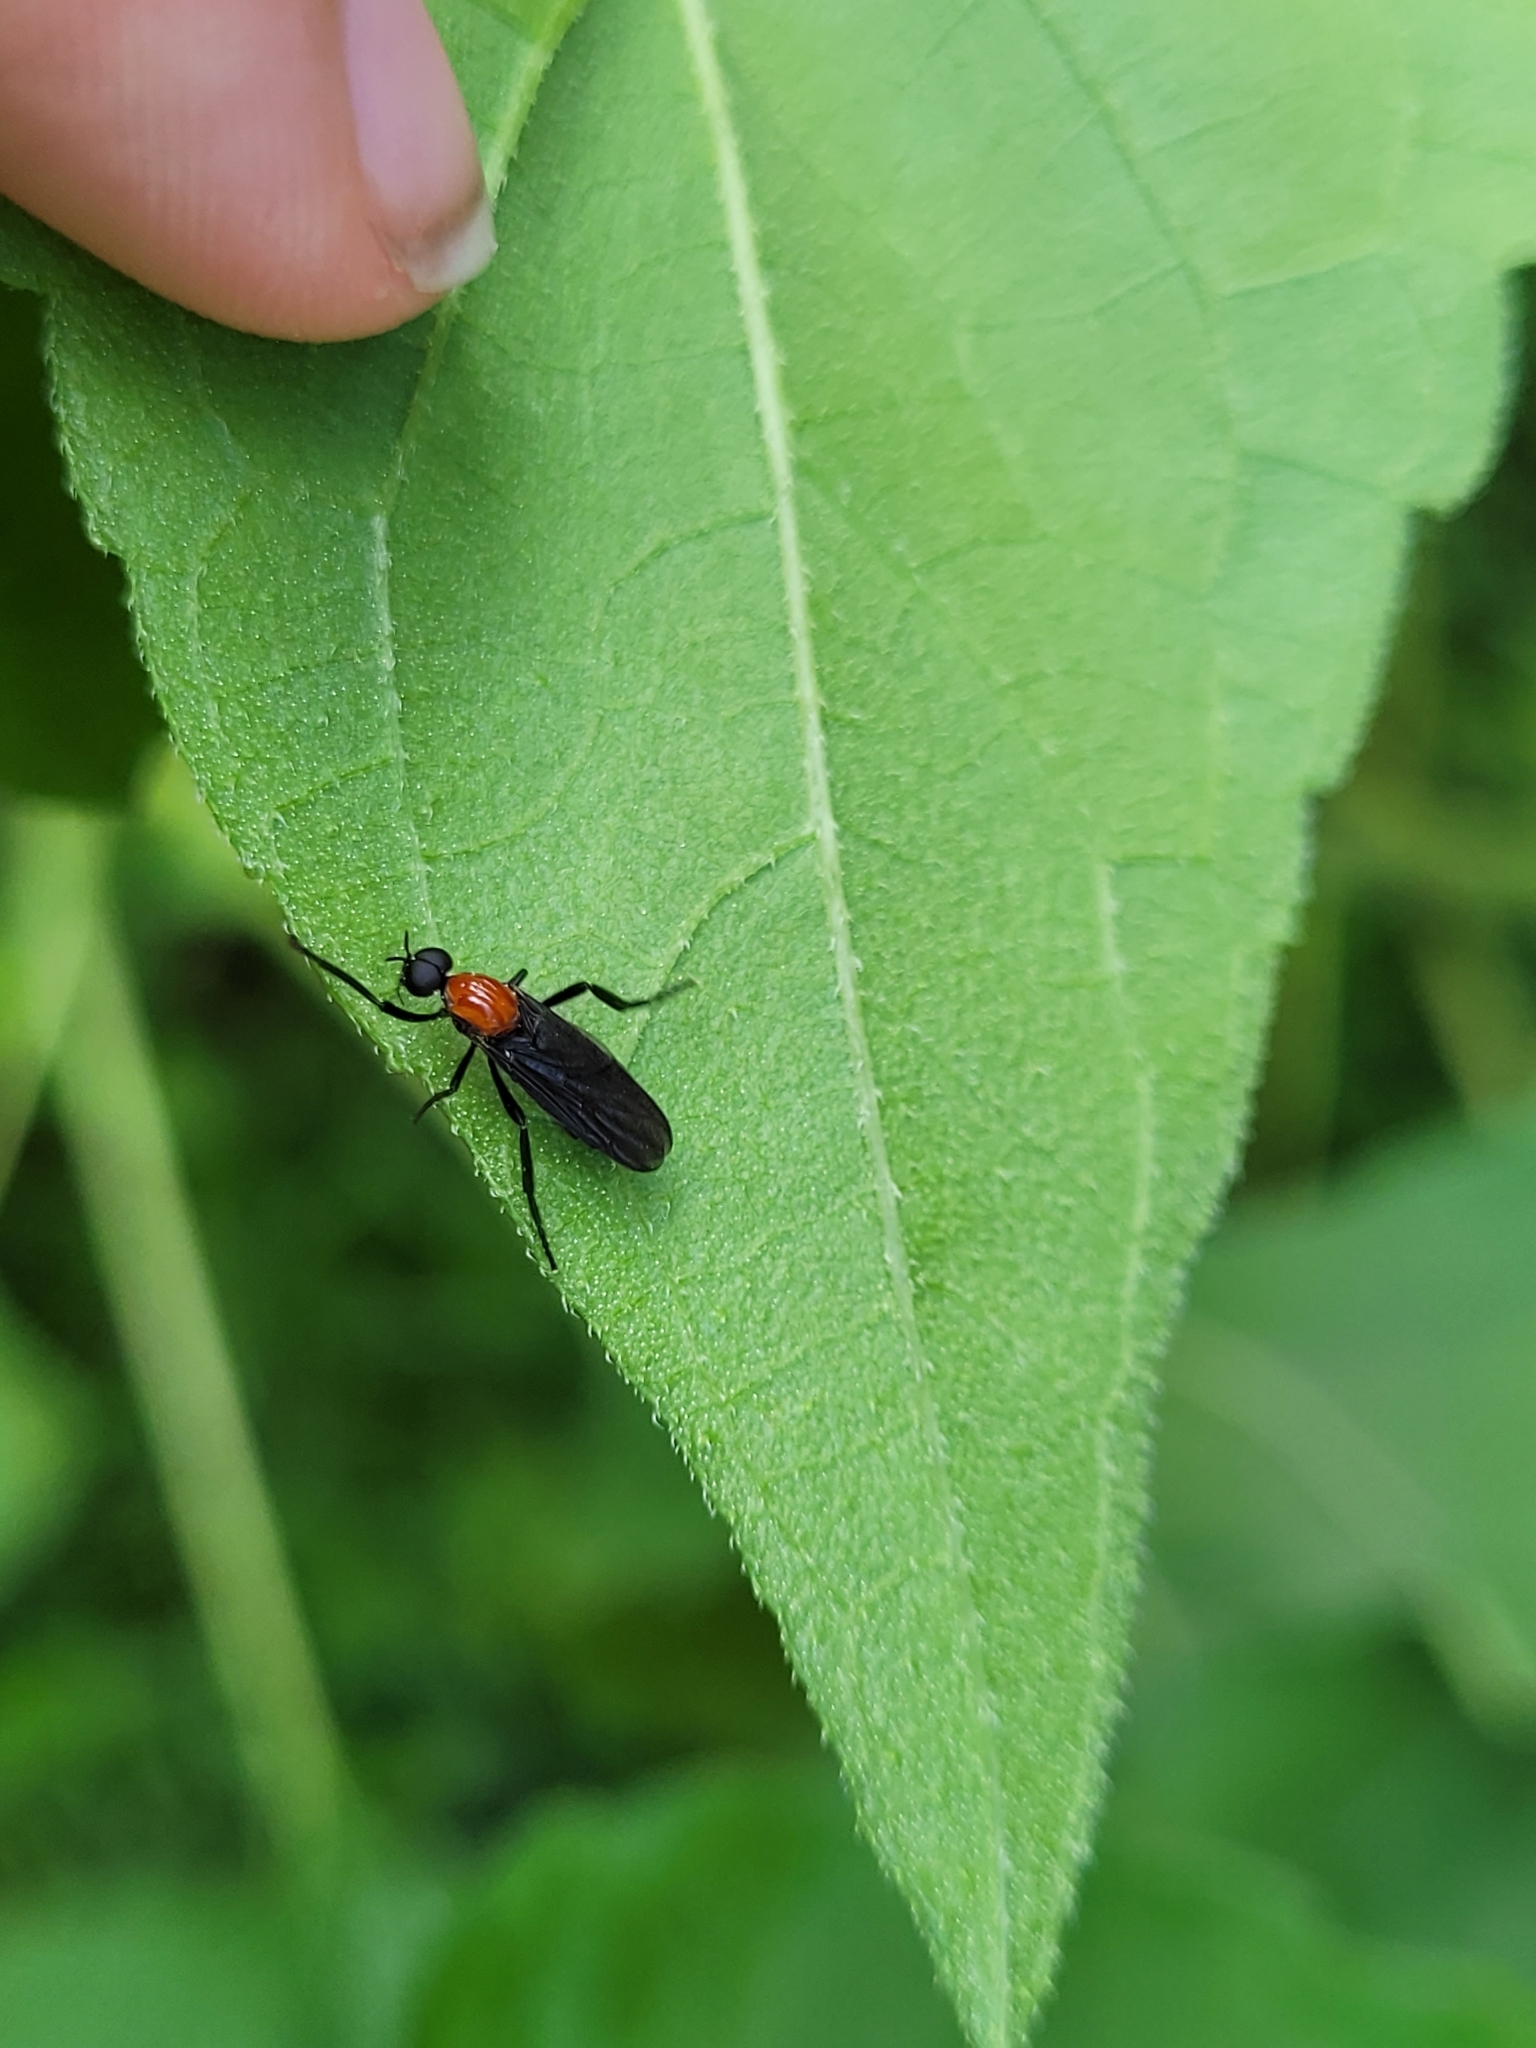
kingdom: Animalia
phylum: Arthropoda
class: Insecta
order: Diptera
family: Bibionidae
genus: Plecia
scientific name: Plecia nearctica
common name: March fly
